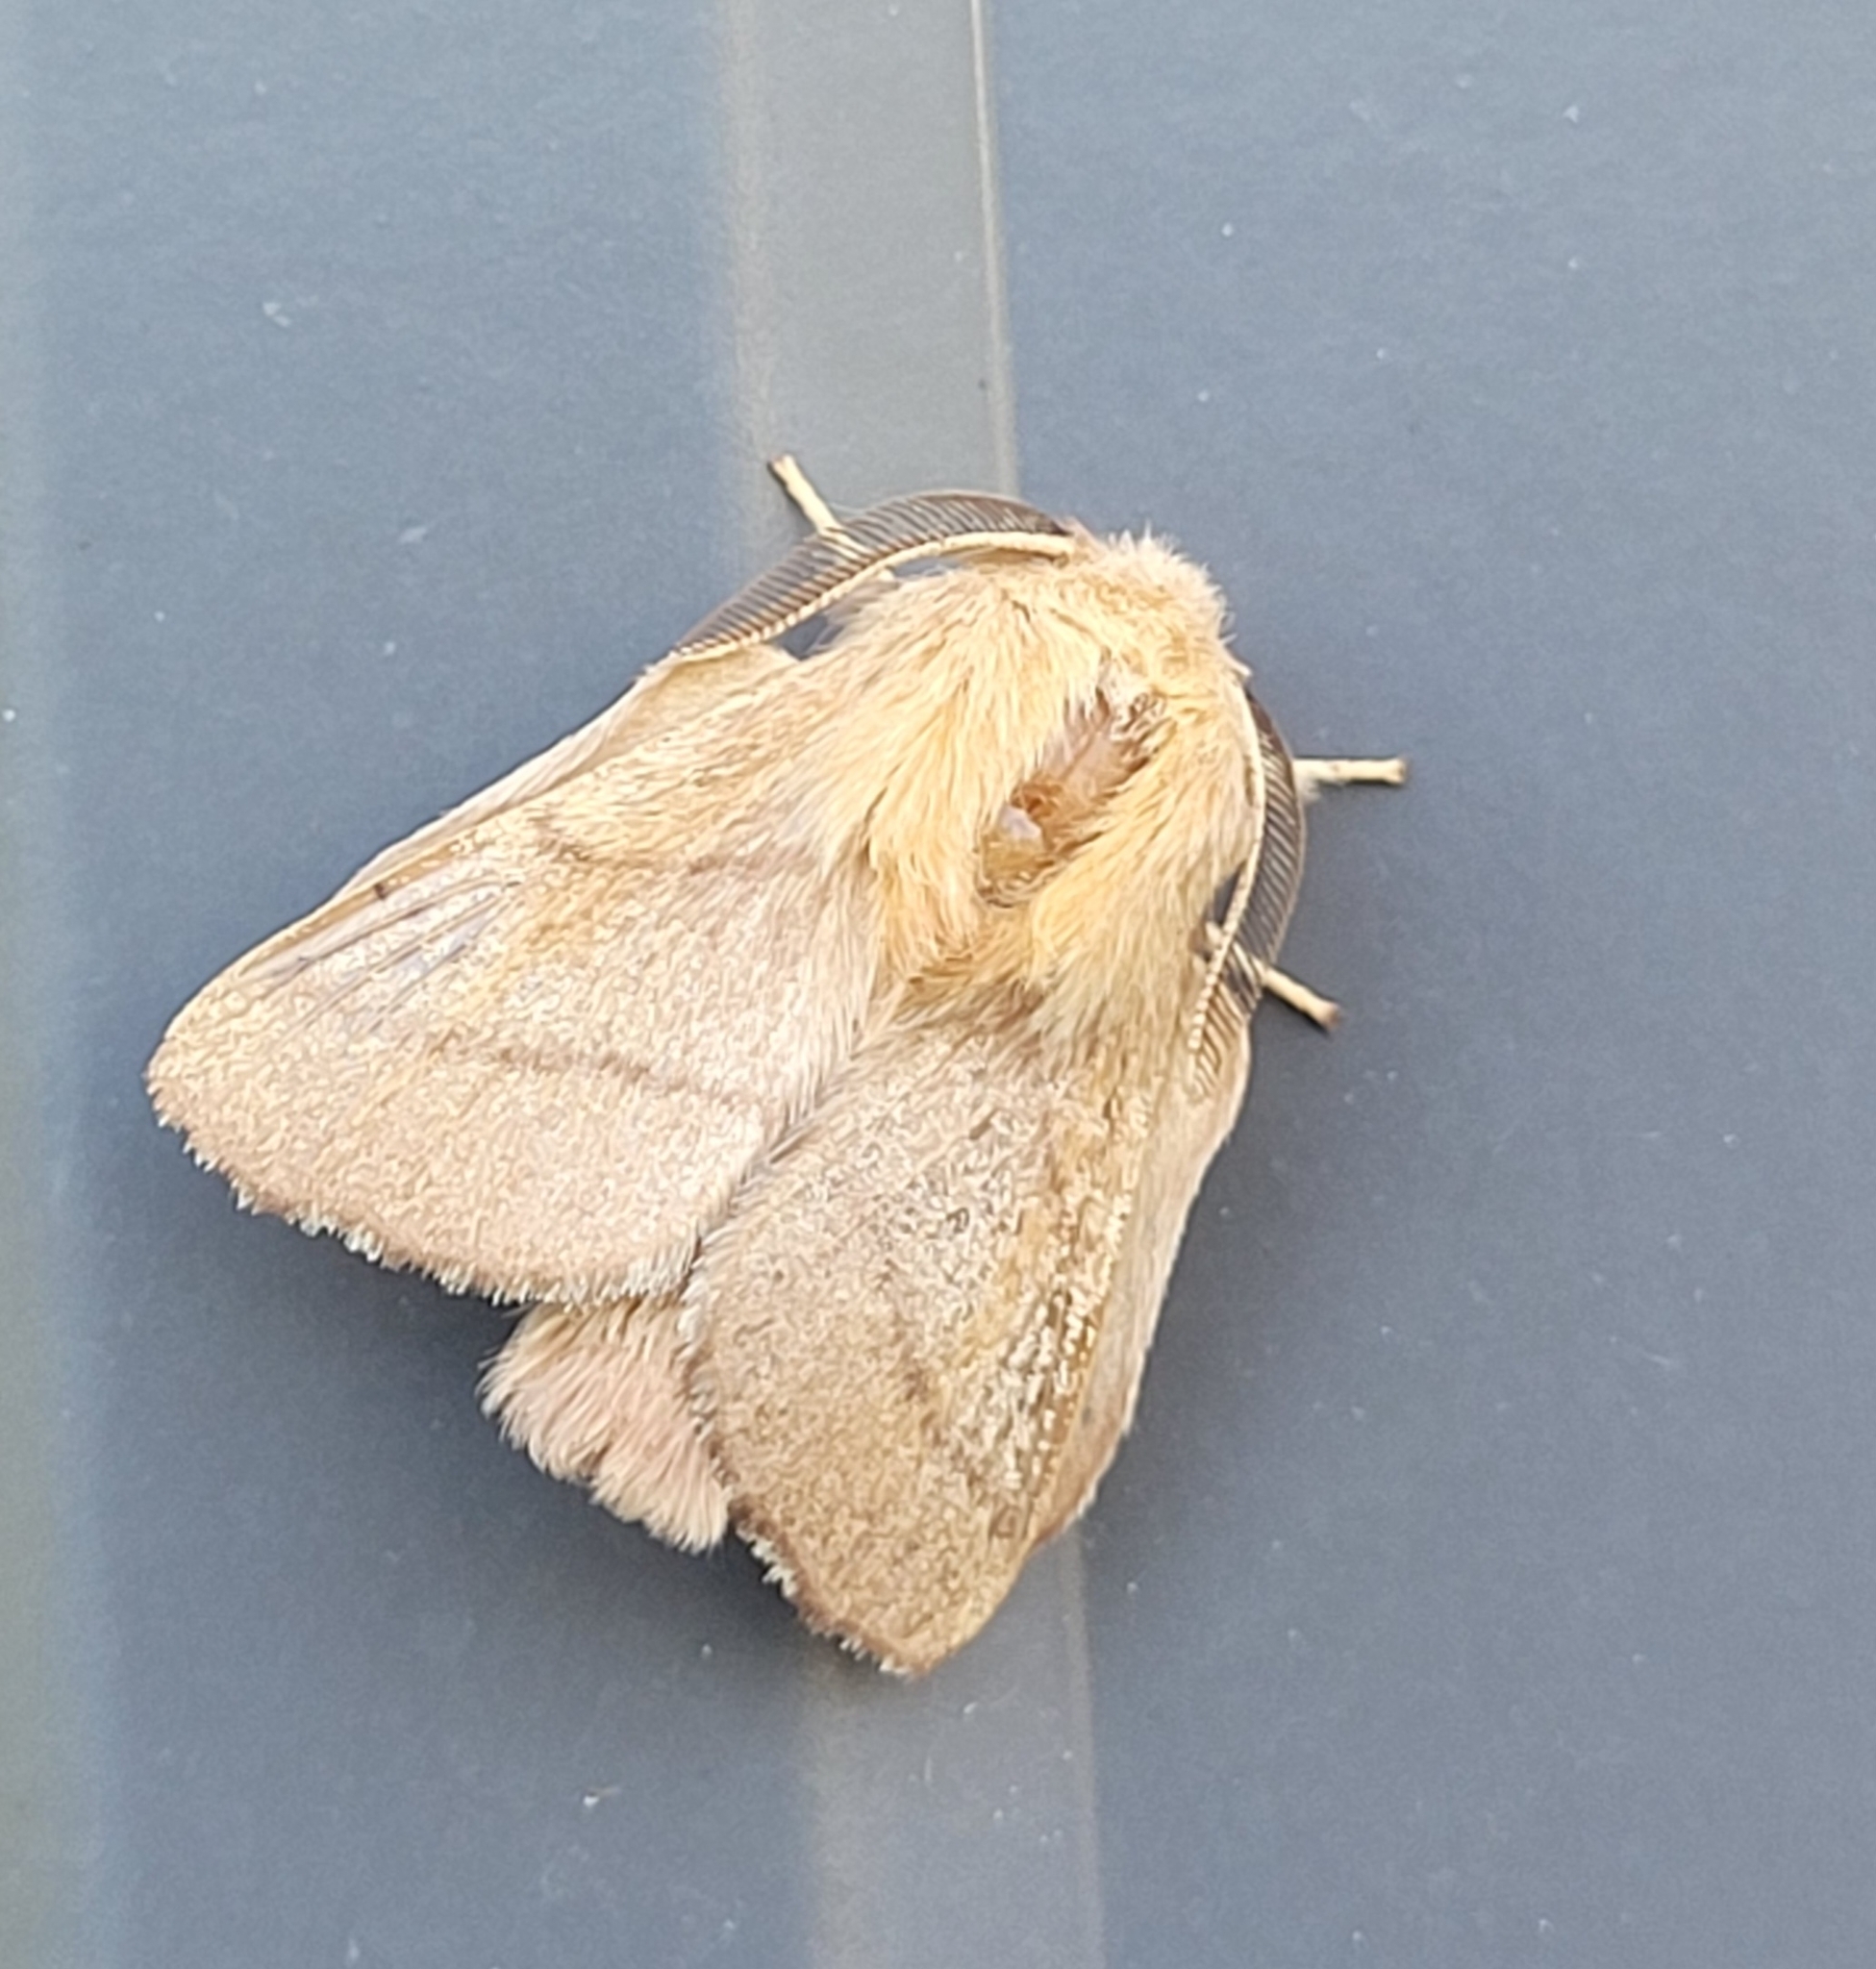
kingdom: Animalia
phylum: Arthropoda
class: Insecta
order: Lepidoptera
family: Lasiocampidae
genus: Malacosoma
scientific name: Malacosoma disstria
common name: Forest tent caterpillar
